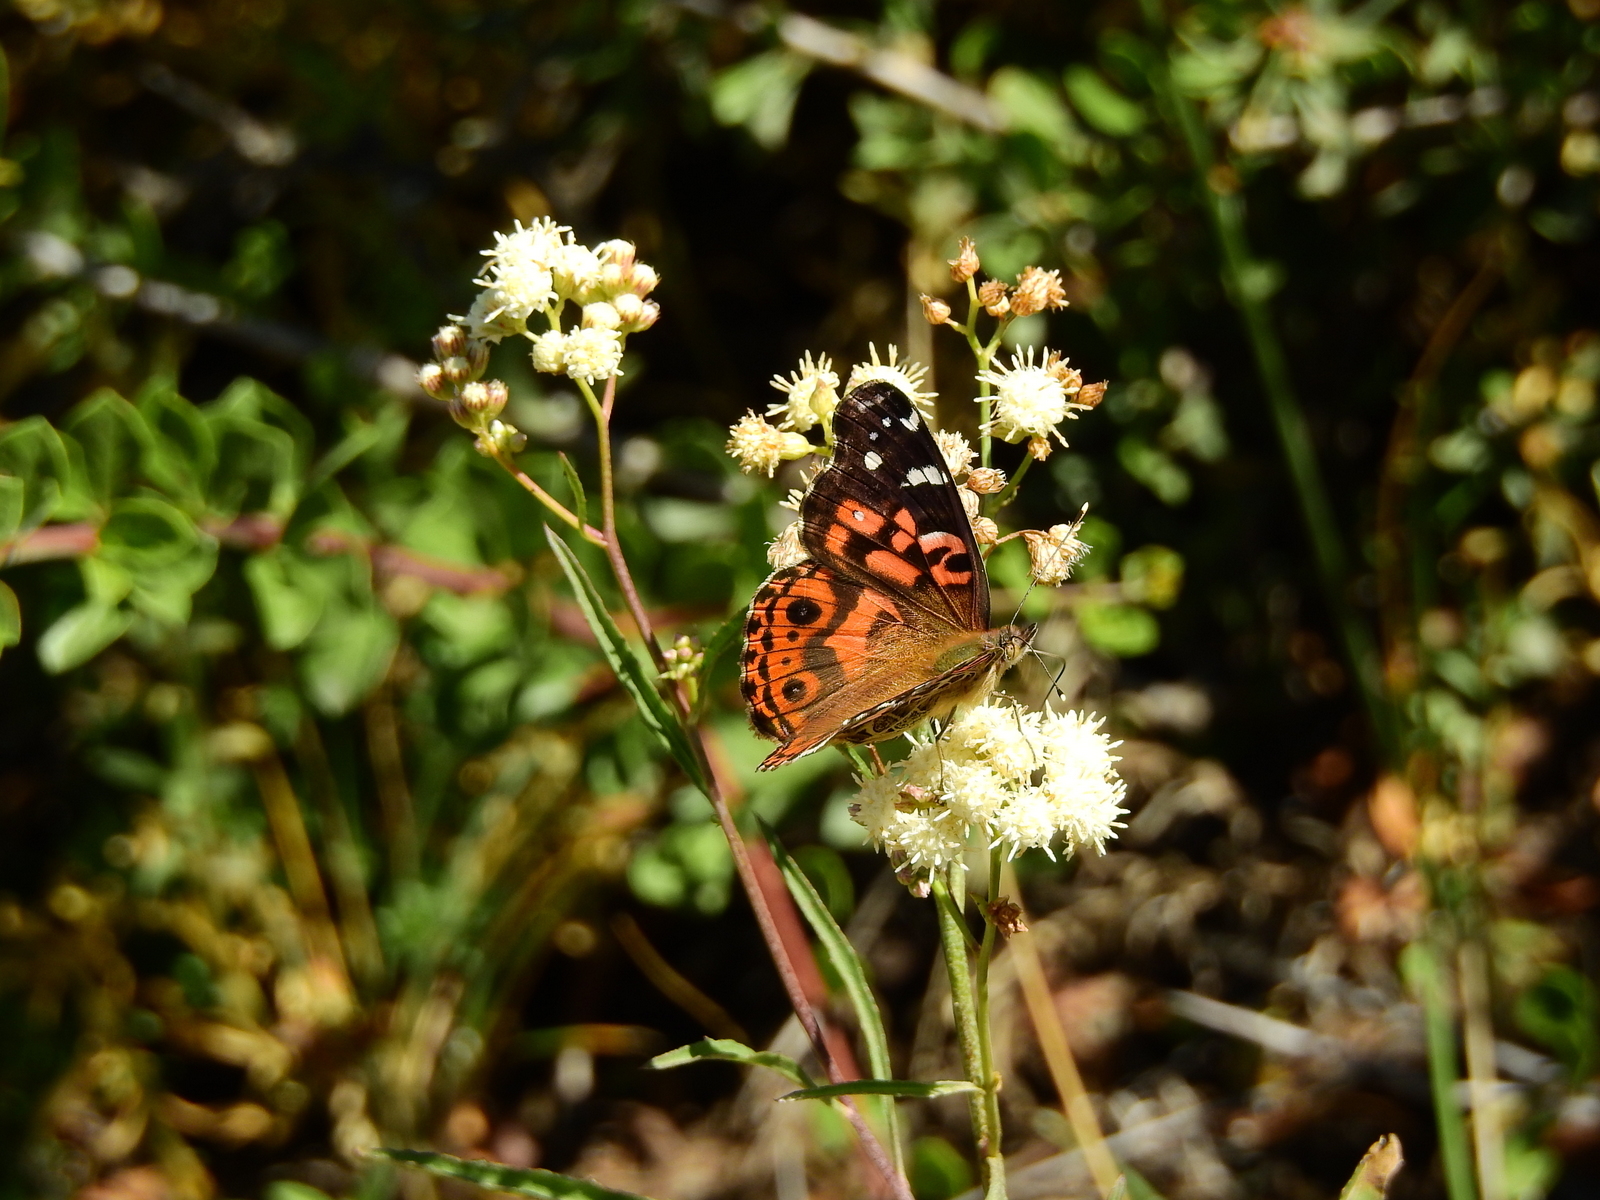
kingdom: Animalia
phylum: Arthropoda
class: Insecta
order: Lepidoptera
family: Nymphalidae
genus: Vanessa
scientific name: Vanessa braziliensis
